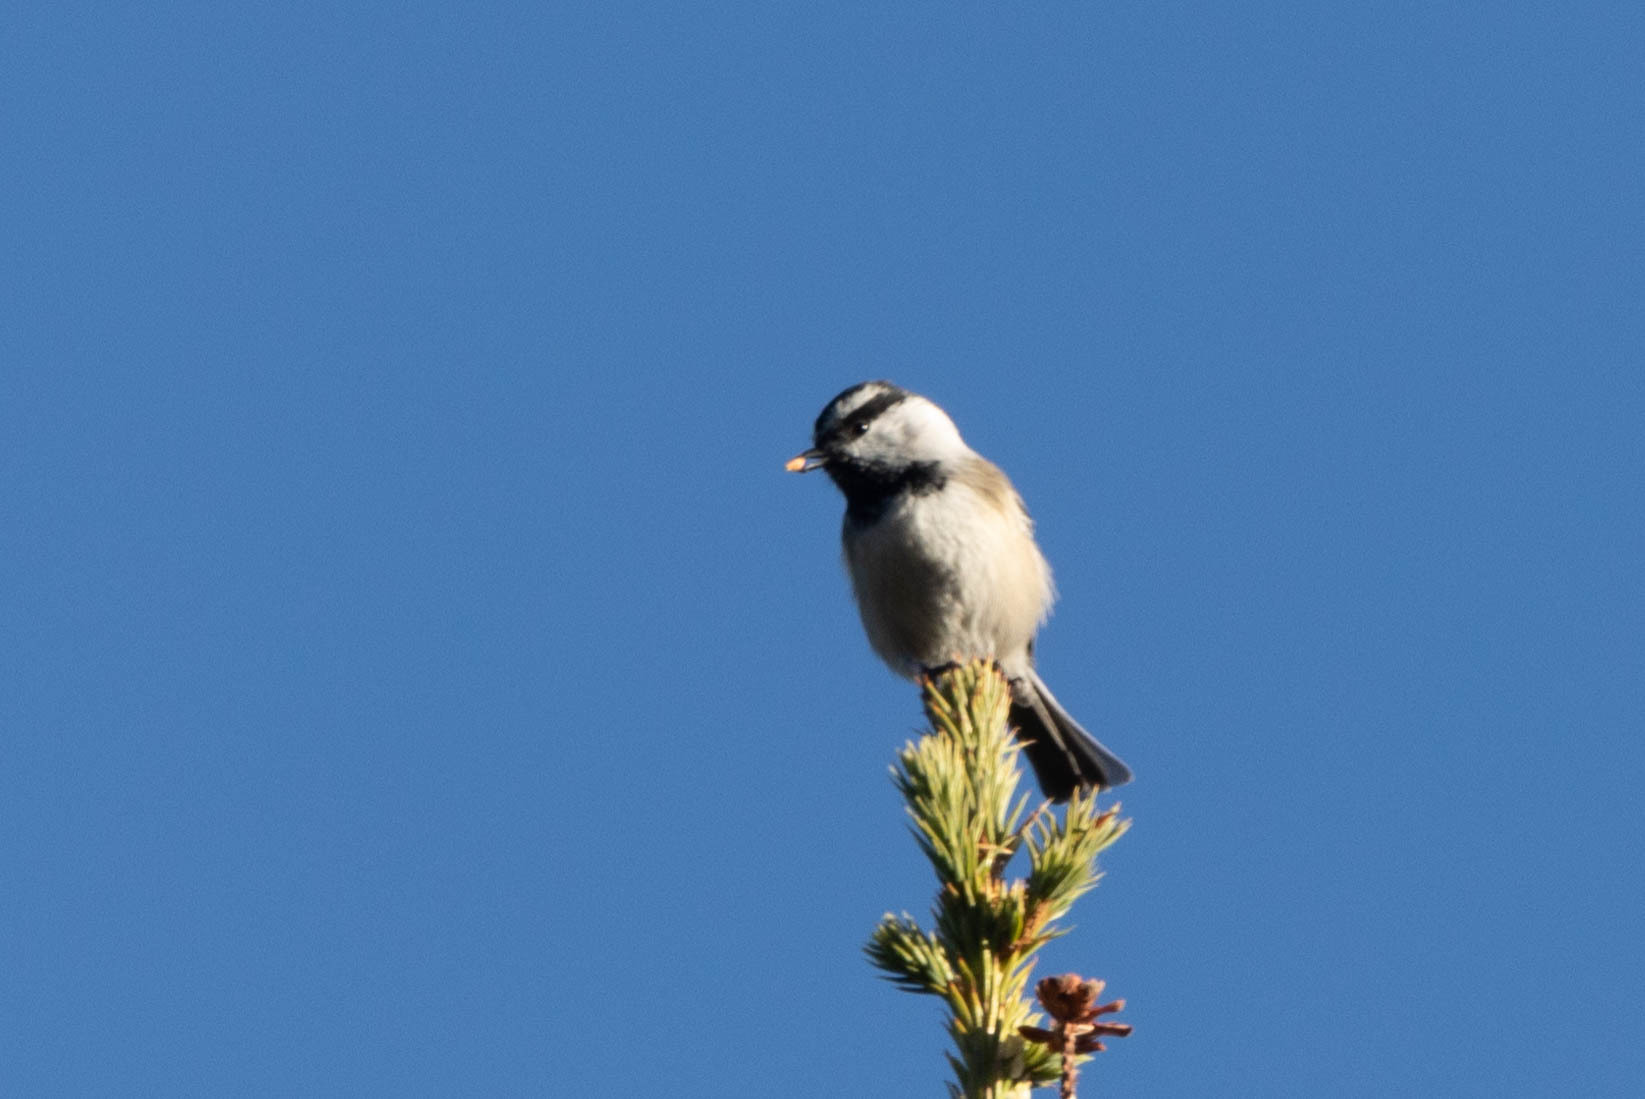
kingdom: Animalia
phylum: Chordata
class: Aves
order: Passeriformes
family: Paridae
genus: Poecile
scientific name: Poecile gambeli
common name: Mountain chickadee
